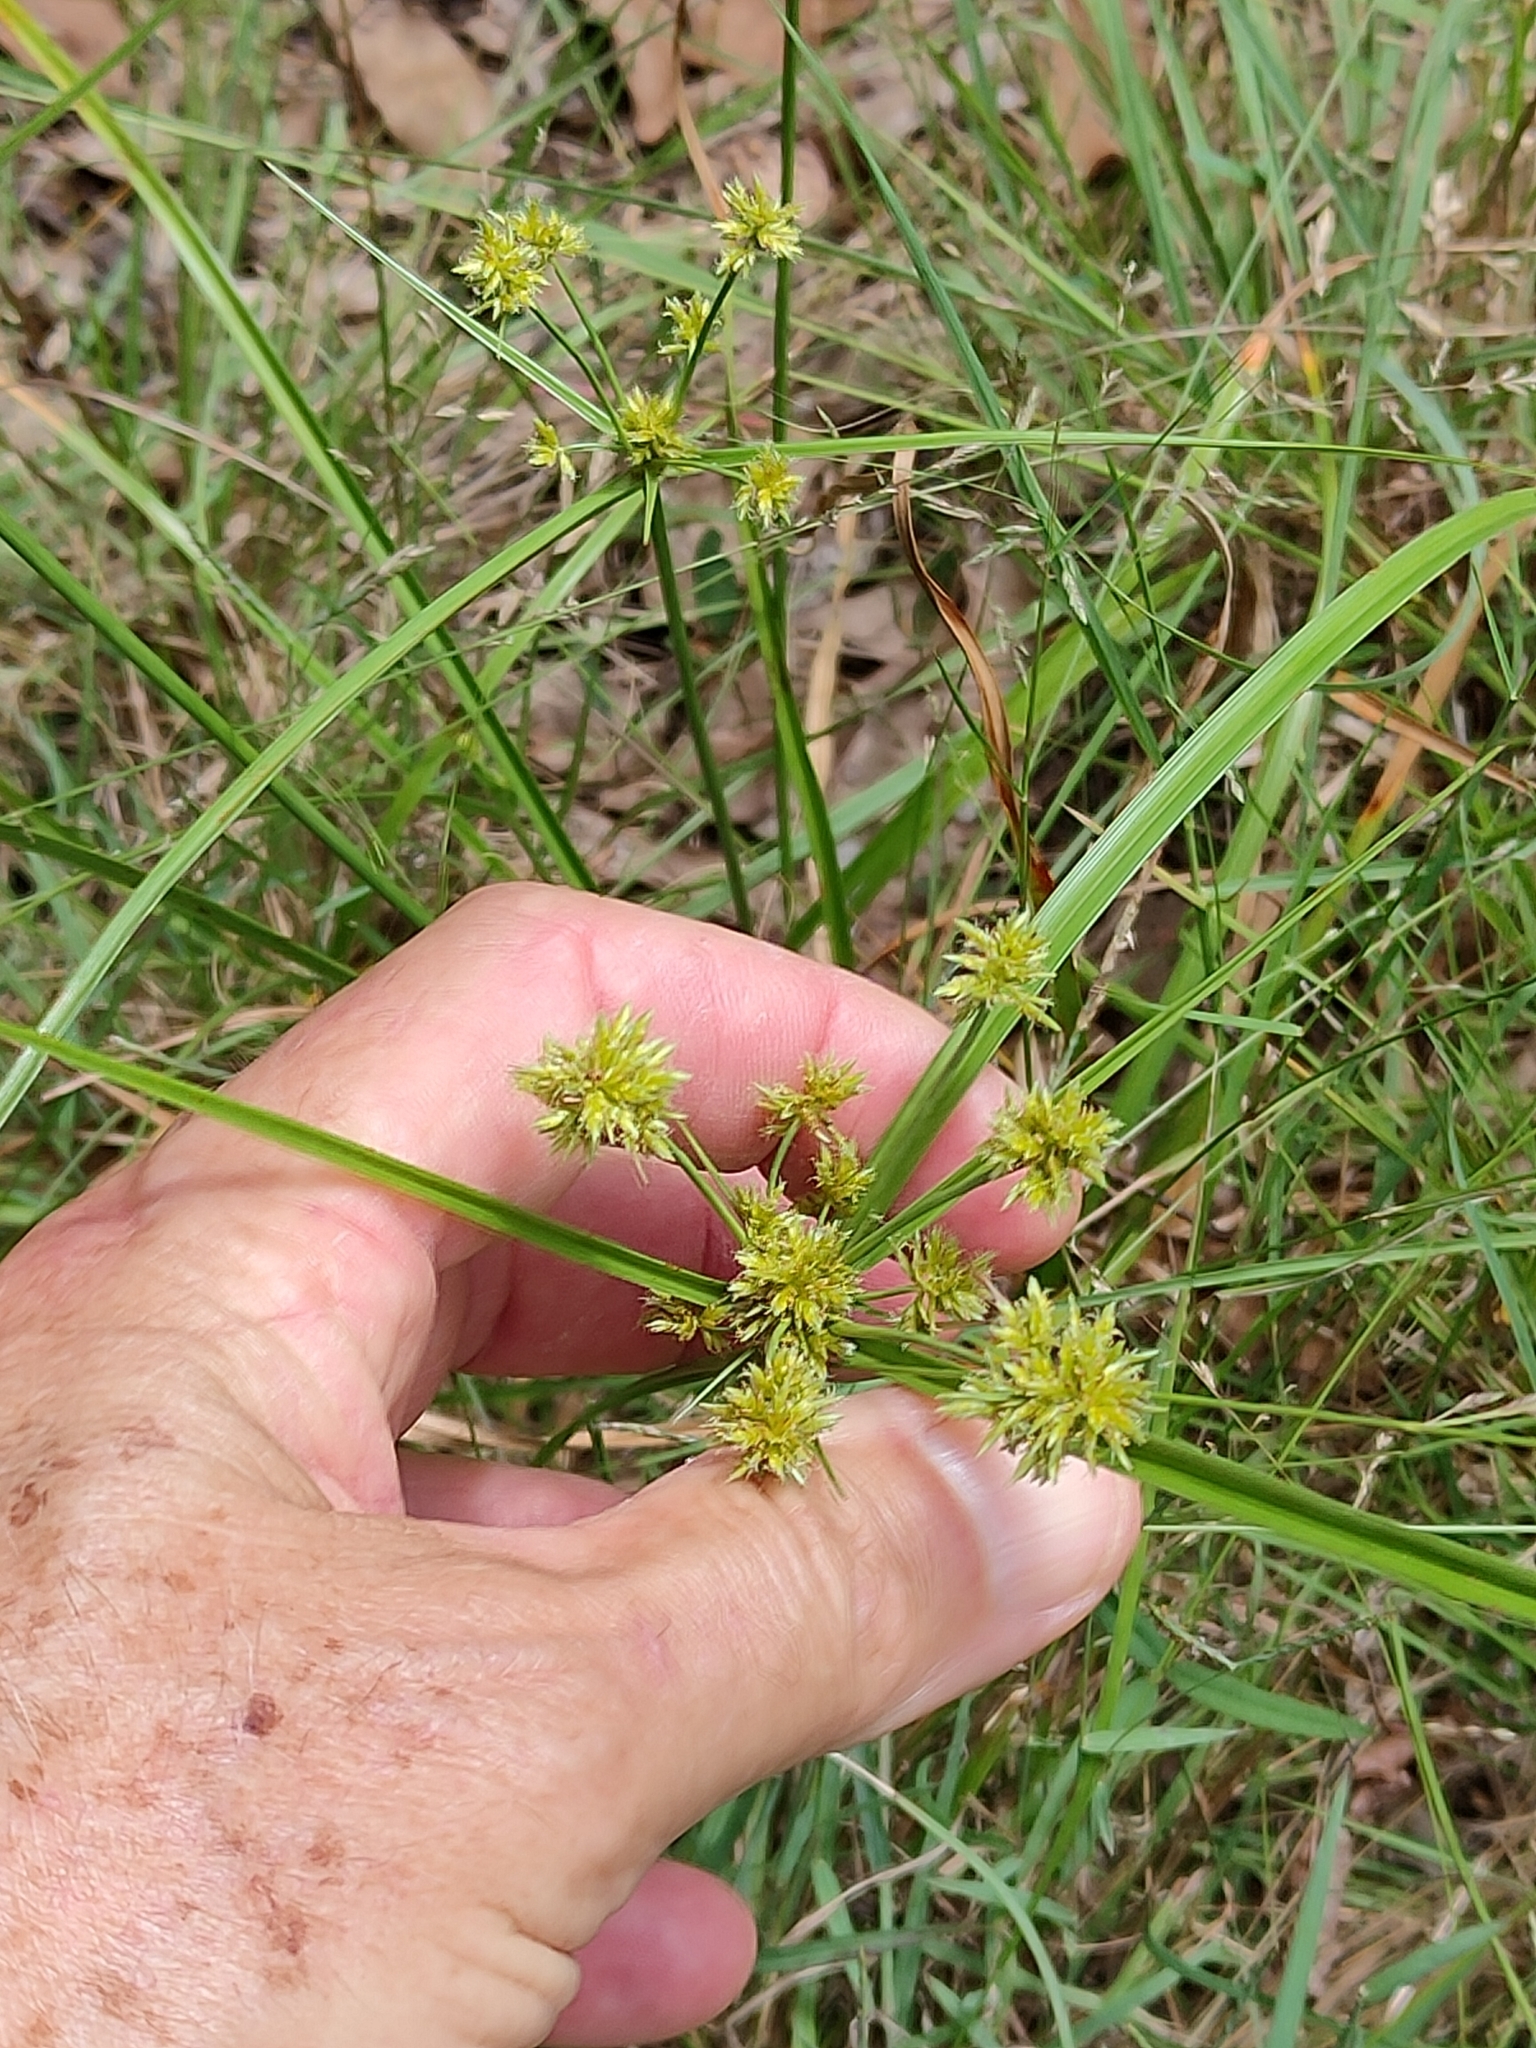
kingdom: Plantae
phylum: Tracheophyta
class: Liliopsida
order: Poales
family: Cyperaceae
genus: Cyperus
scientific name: Cyperus fulvus
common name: Sticky sedge
